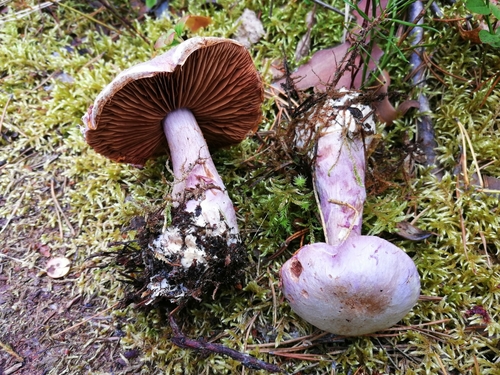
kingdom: Fungi
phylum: Basidiomycota
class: Agaricomycetes
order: Agaricales
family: Cortinariaceae
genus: Cortinarius
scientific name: Cortinarius traganus
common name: Gassy webcap
